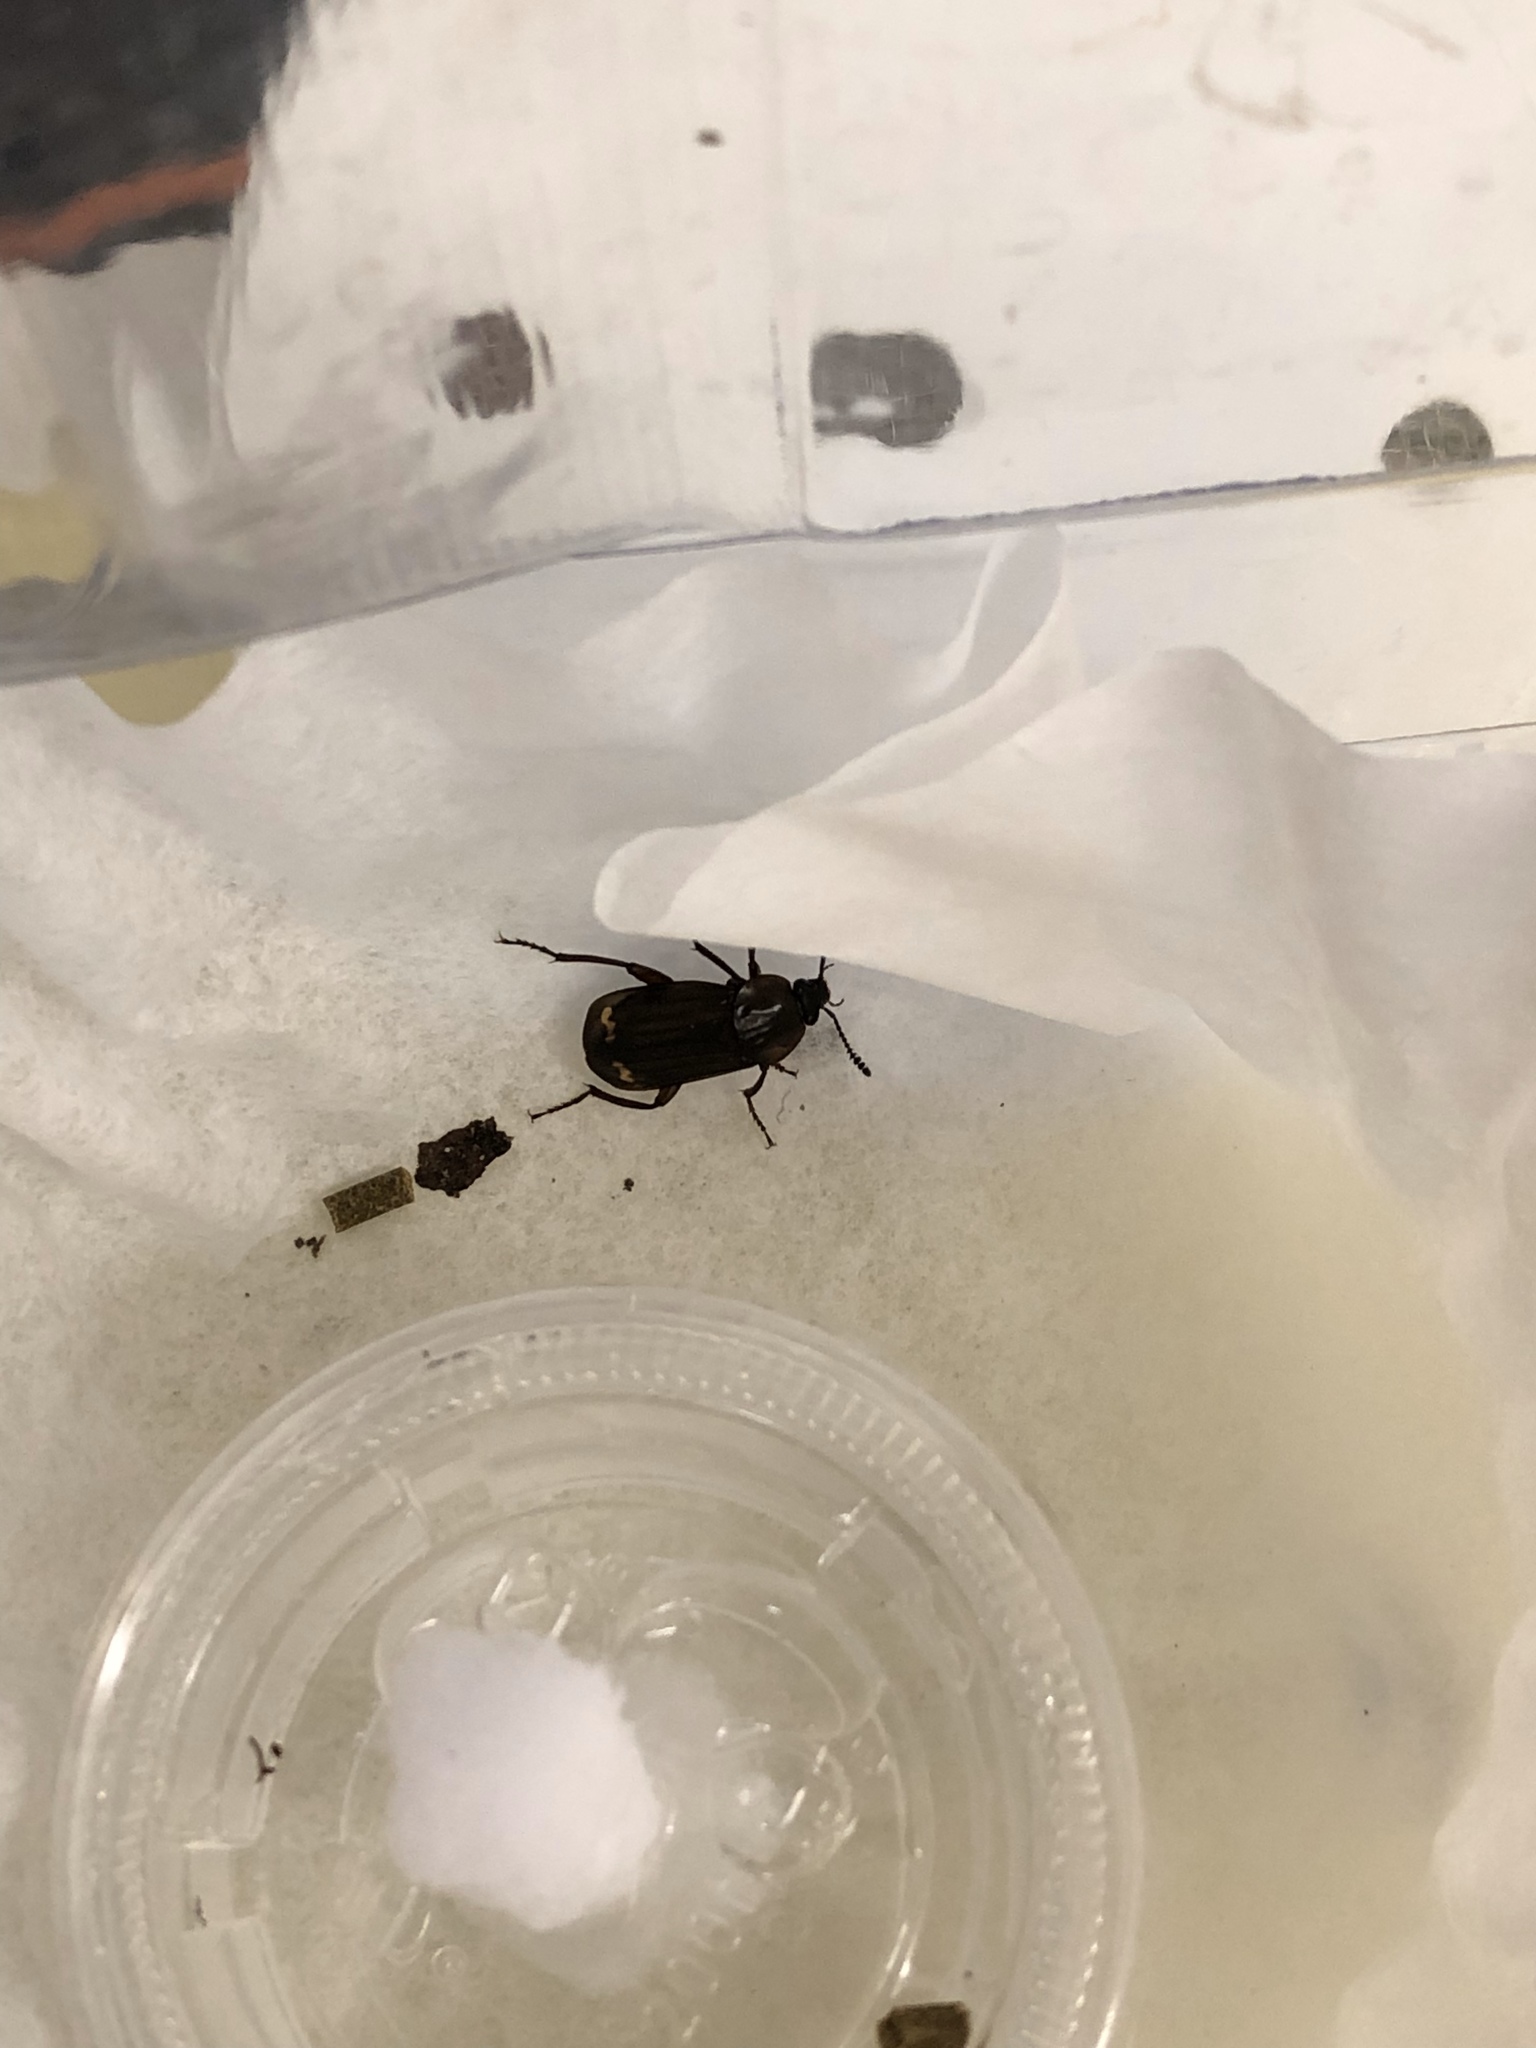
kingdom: Animalia
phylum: Arthropoda
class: Insecta
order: Coleoptera
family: Staphylinidae
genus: Necrodes
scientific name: Necrodes surinamensis
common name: Red-lined carrion beetle
